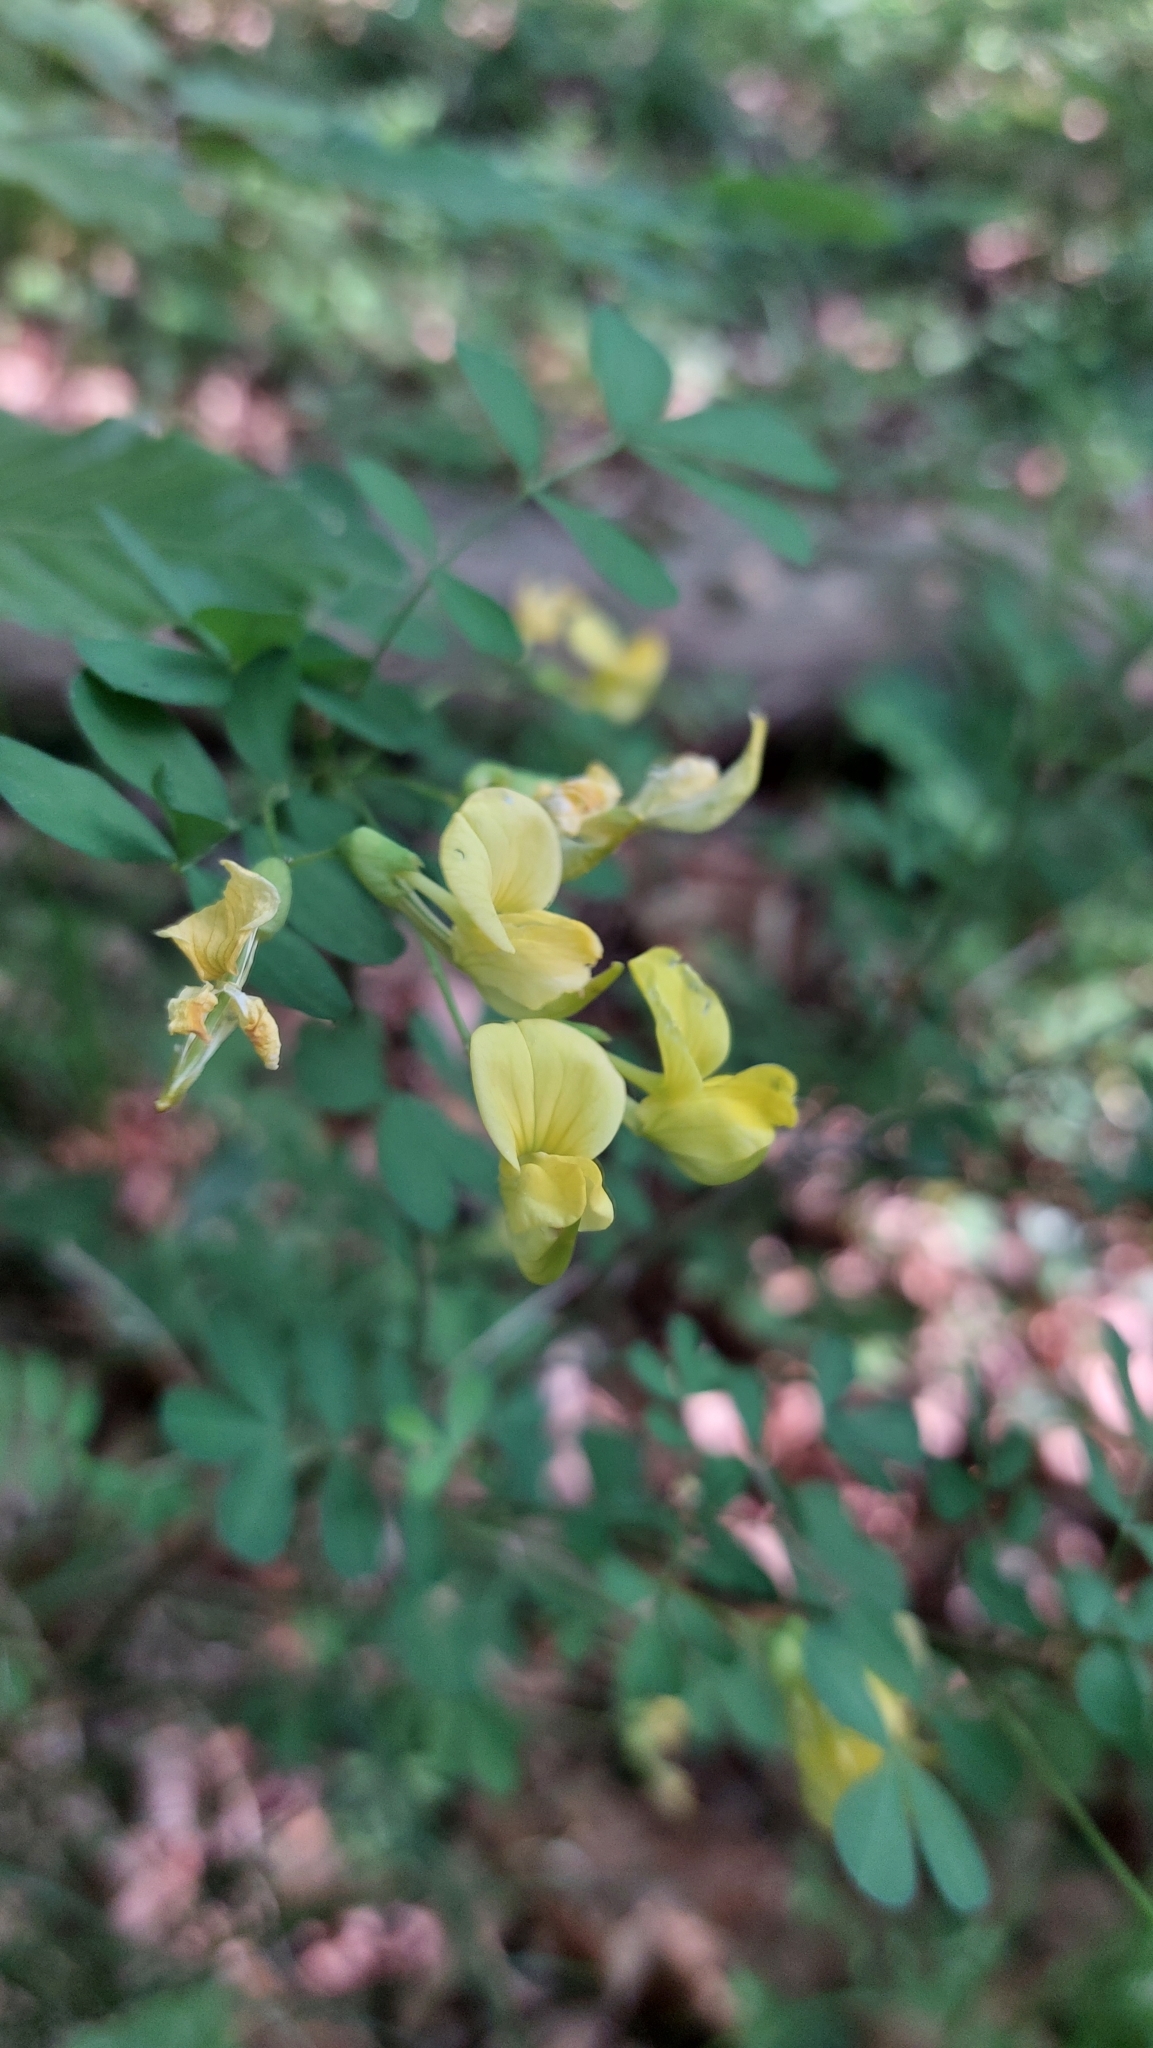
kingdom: Plantae
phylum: Tracheophyta
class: Magnoliopsida
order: Fabales
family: Fabaceae
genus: Hippocrepis
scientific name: Hippocrepis emerus
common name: Scorpion senna
